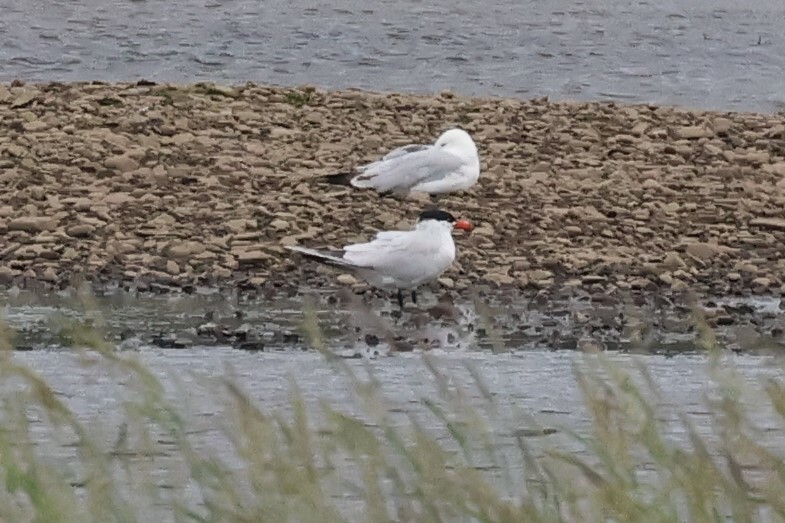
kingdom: Animalia
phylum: Chordata
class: Aves
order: Charadriiformes
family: Laridae
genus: Hydroprogne
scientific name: Hydroprogne caspia
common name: Caspian tern
